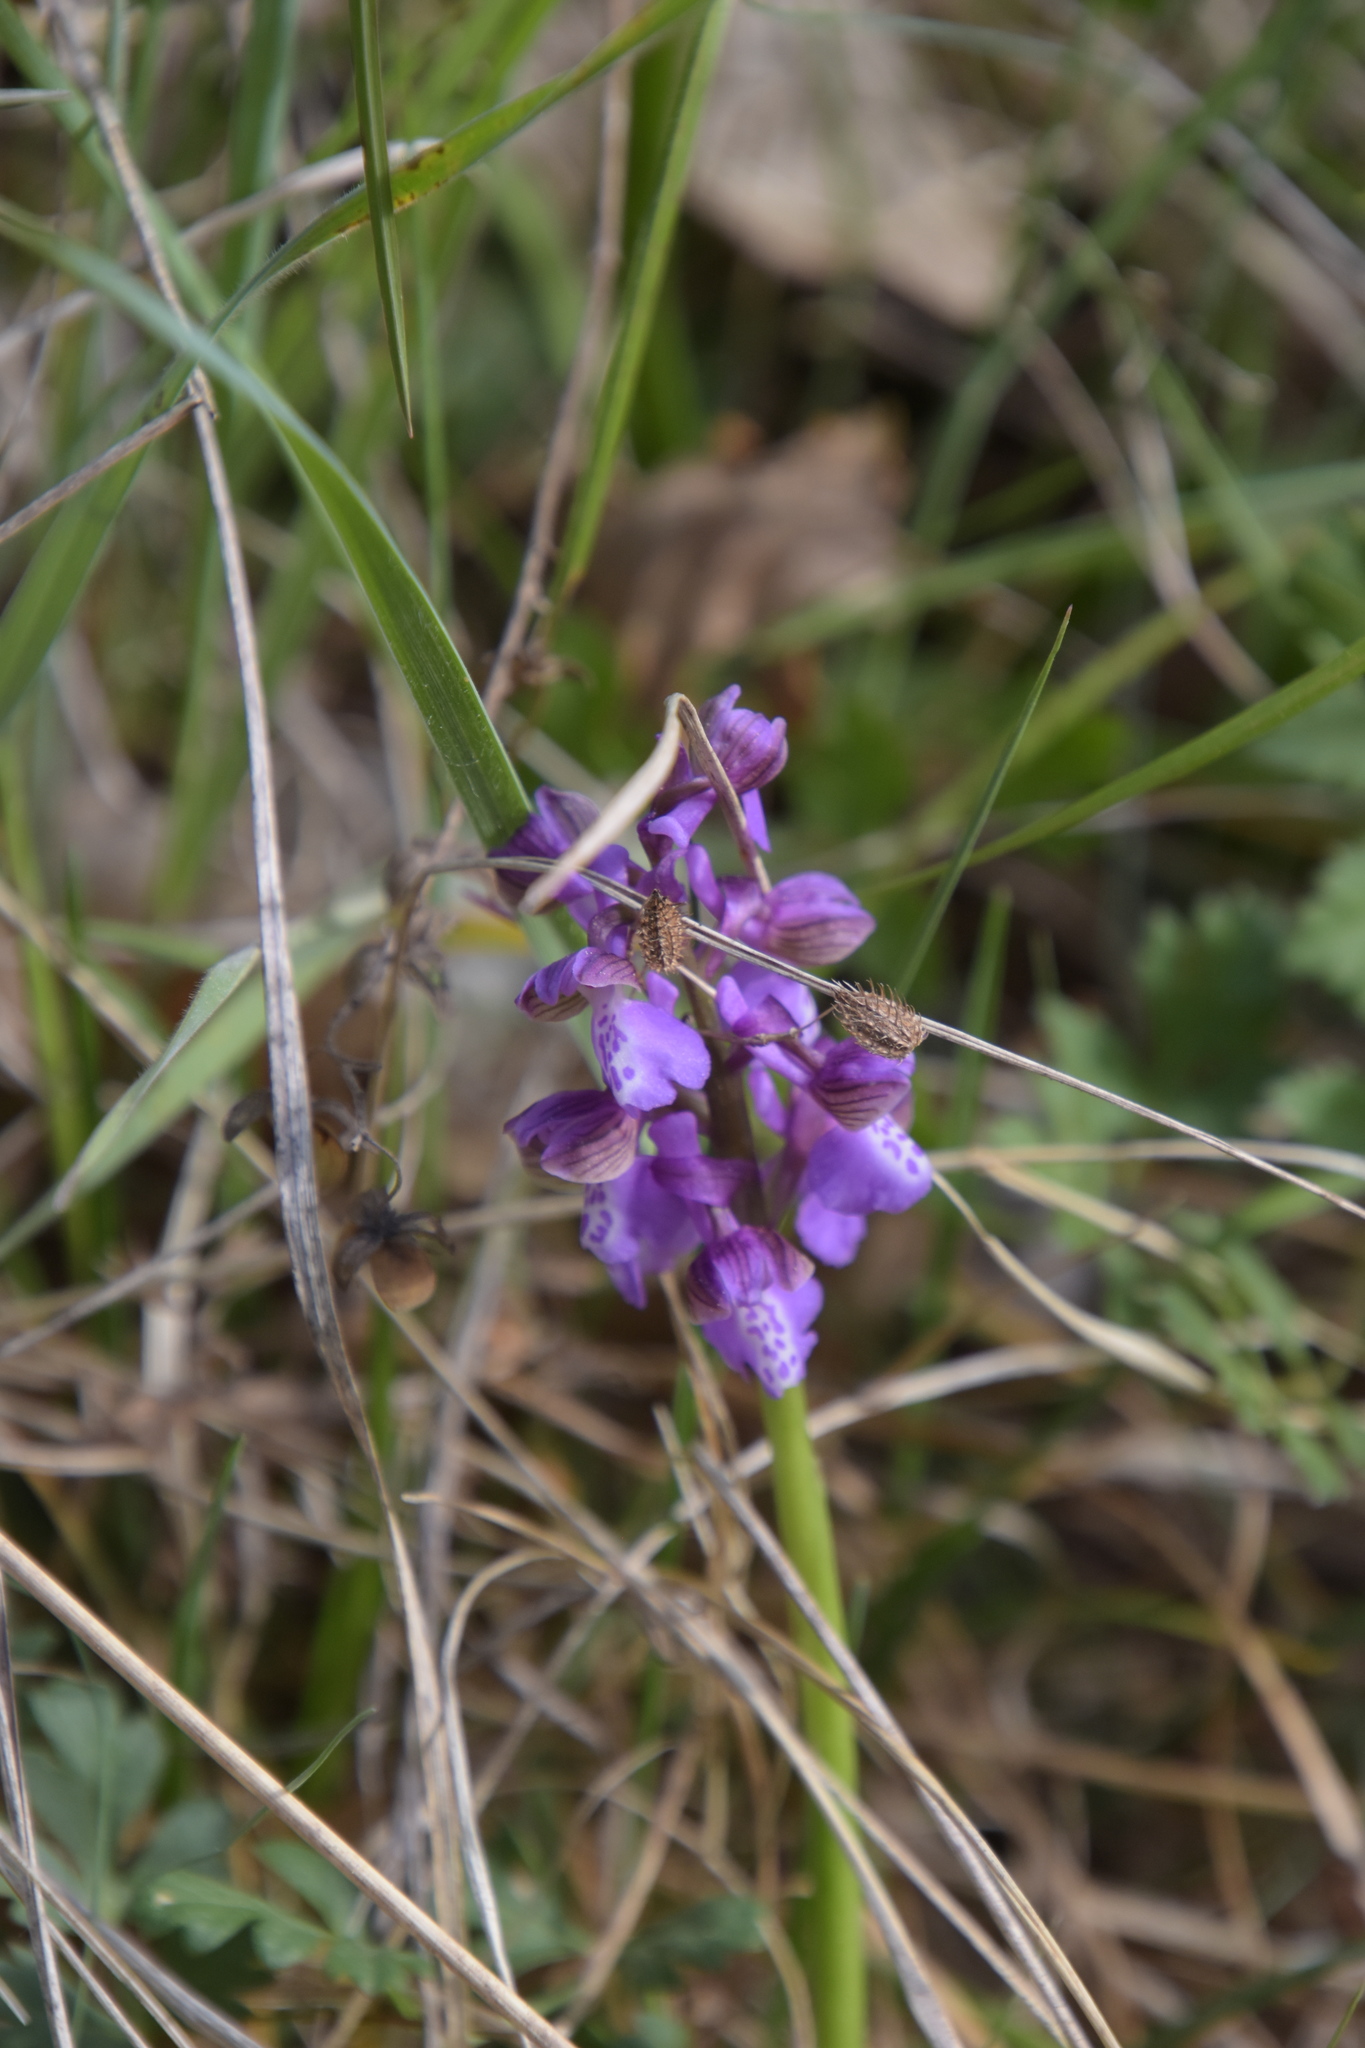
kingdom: Plantae
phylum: Tracheophyta
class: Liliopsida
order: Asparagales
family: Orchidaceae
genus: Anacamptis
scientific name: Anacamptis morio
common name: Green-winged orchid
